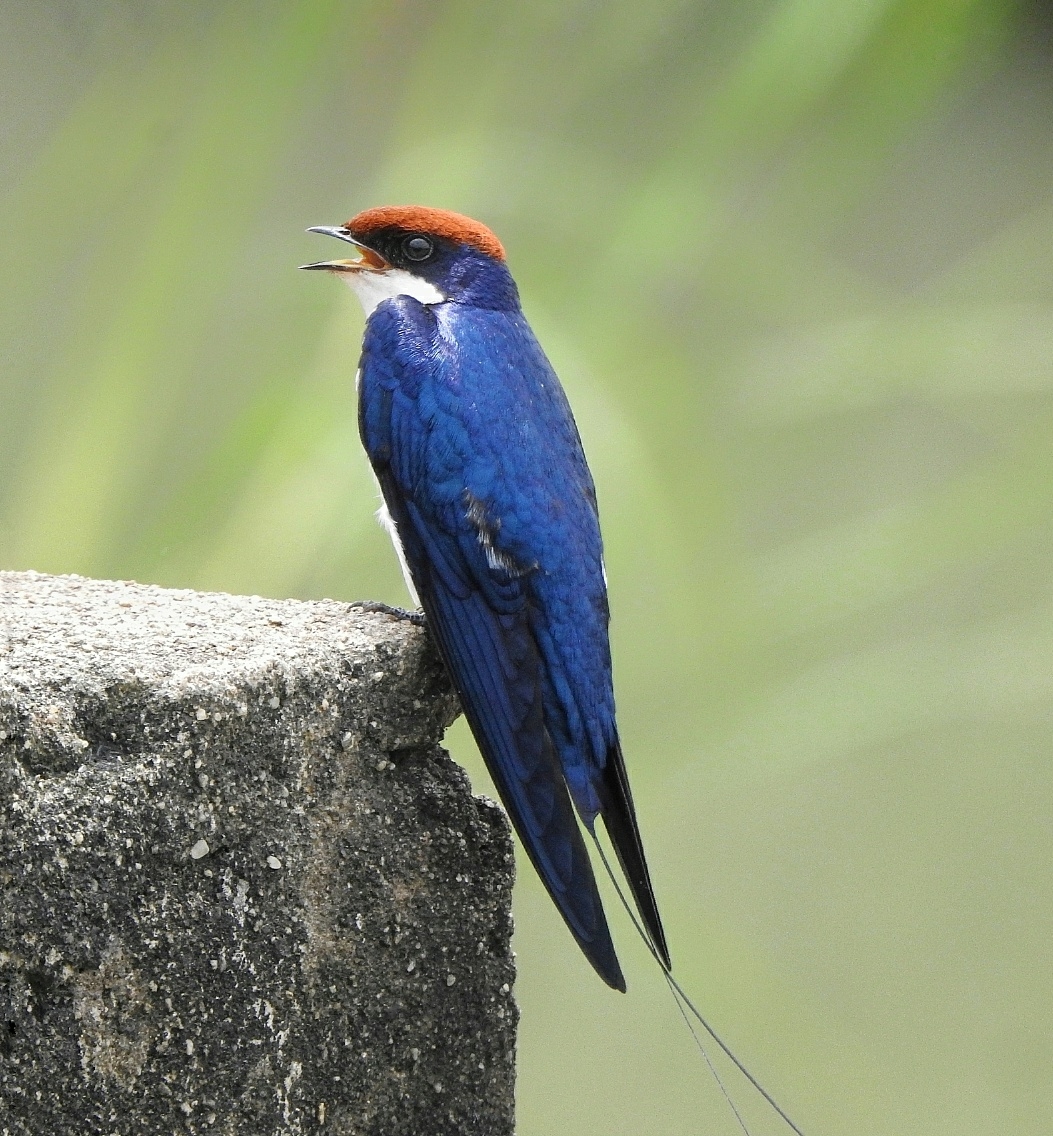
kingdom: Animalia
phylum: Chordata
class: Aves
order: Passeriformes
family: Hirundinidae
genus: Hirundo
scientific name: Hirundo smithii
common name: Wire-tailed swallow
